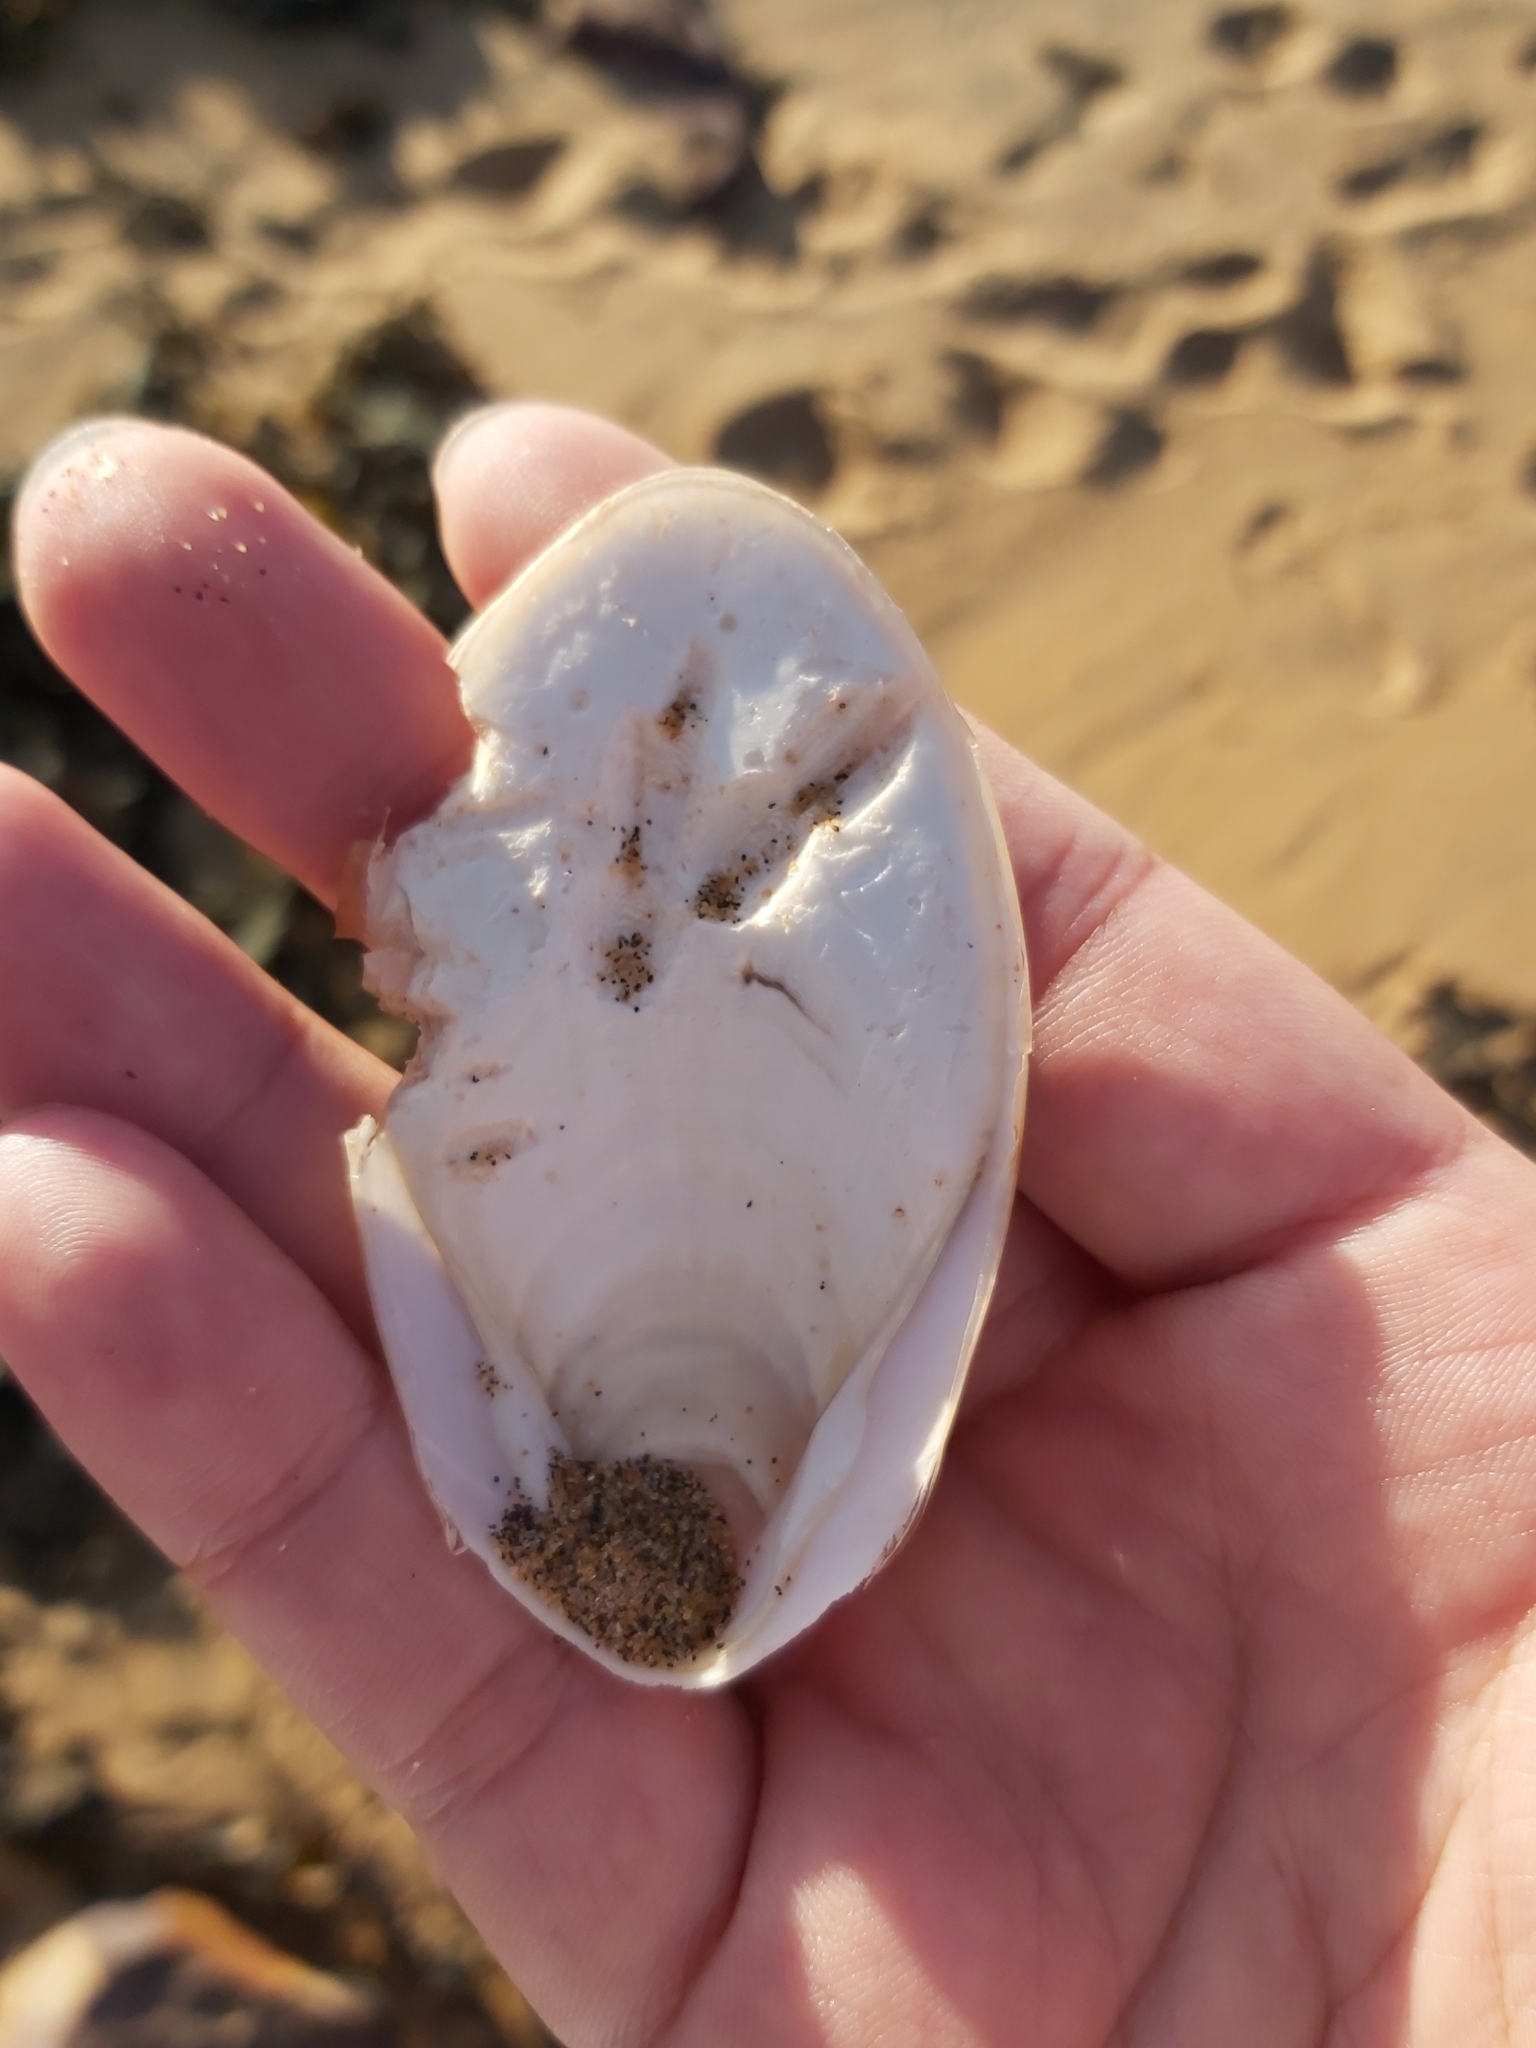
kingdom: Animalia
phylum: Mollusca
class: Cephalopoda
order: Sepiida
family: Sepiidae
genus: Ascarosepion
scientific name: Ascarosepion mestus
